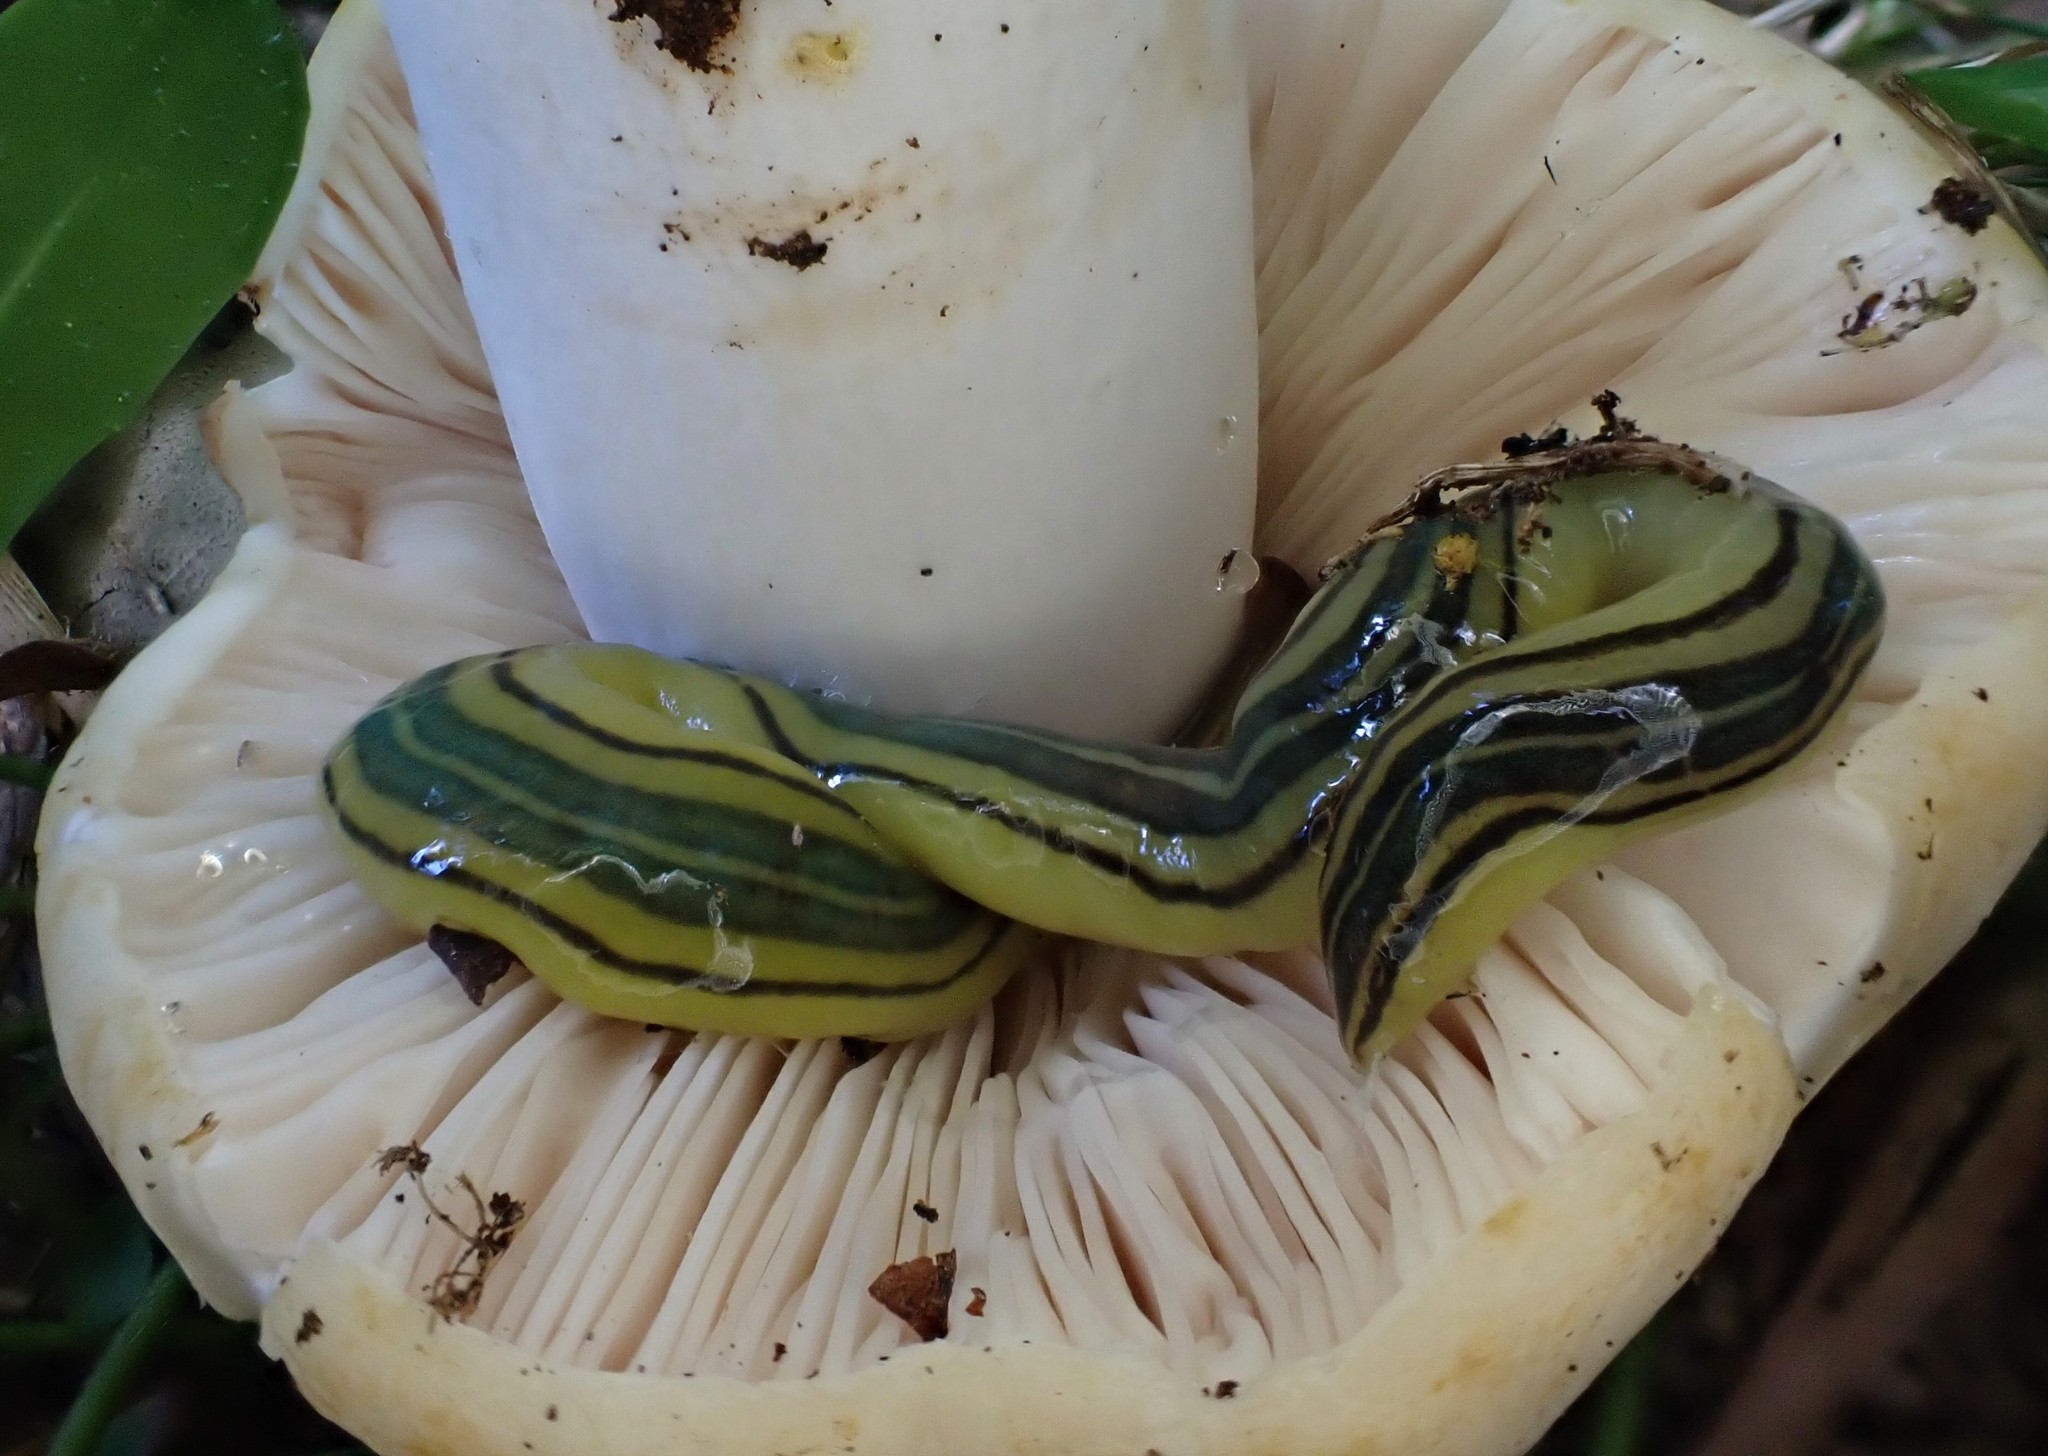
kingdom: Animalia
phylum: Platyhelminthes
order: Tricladida
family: Geoplanidae
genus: Caenoplana
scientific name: Caenoplana hoggii
